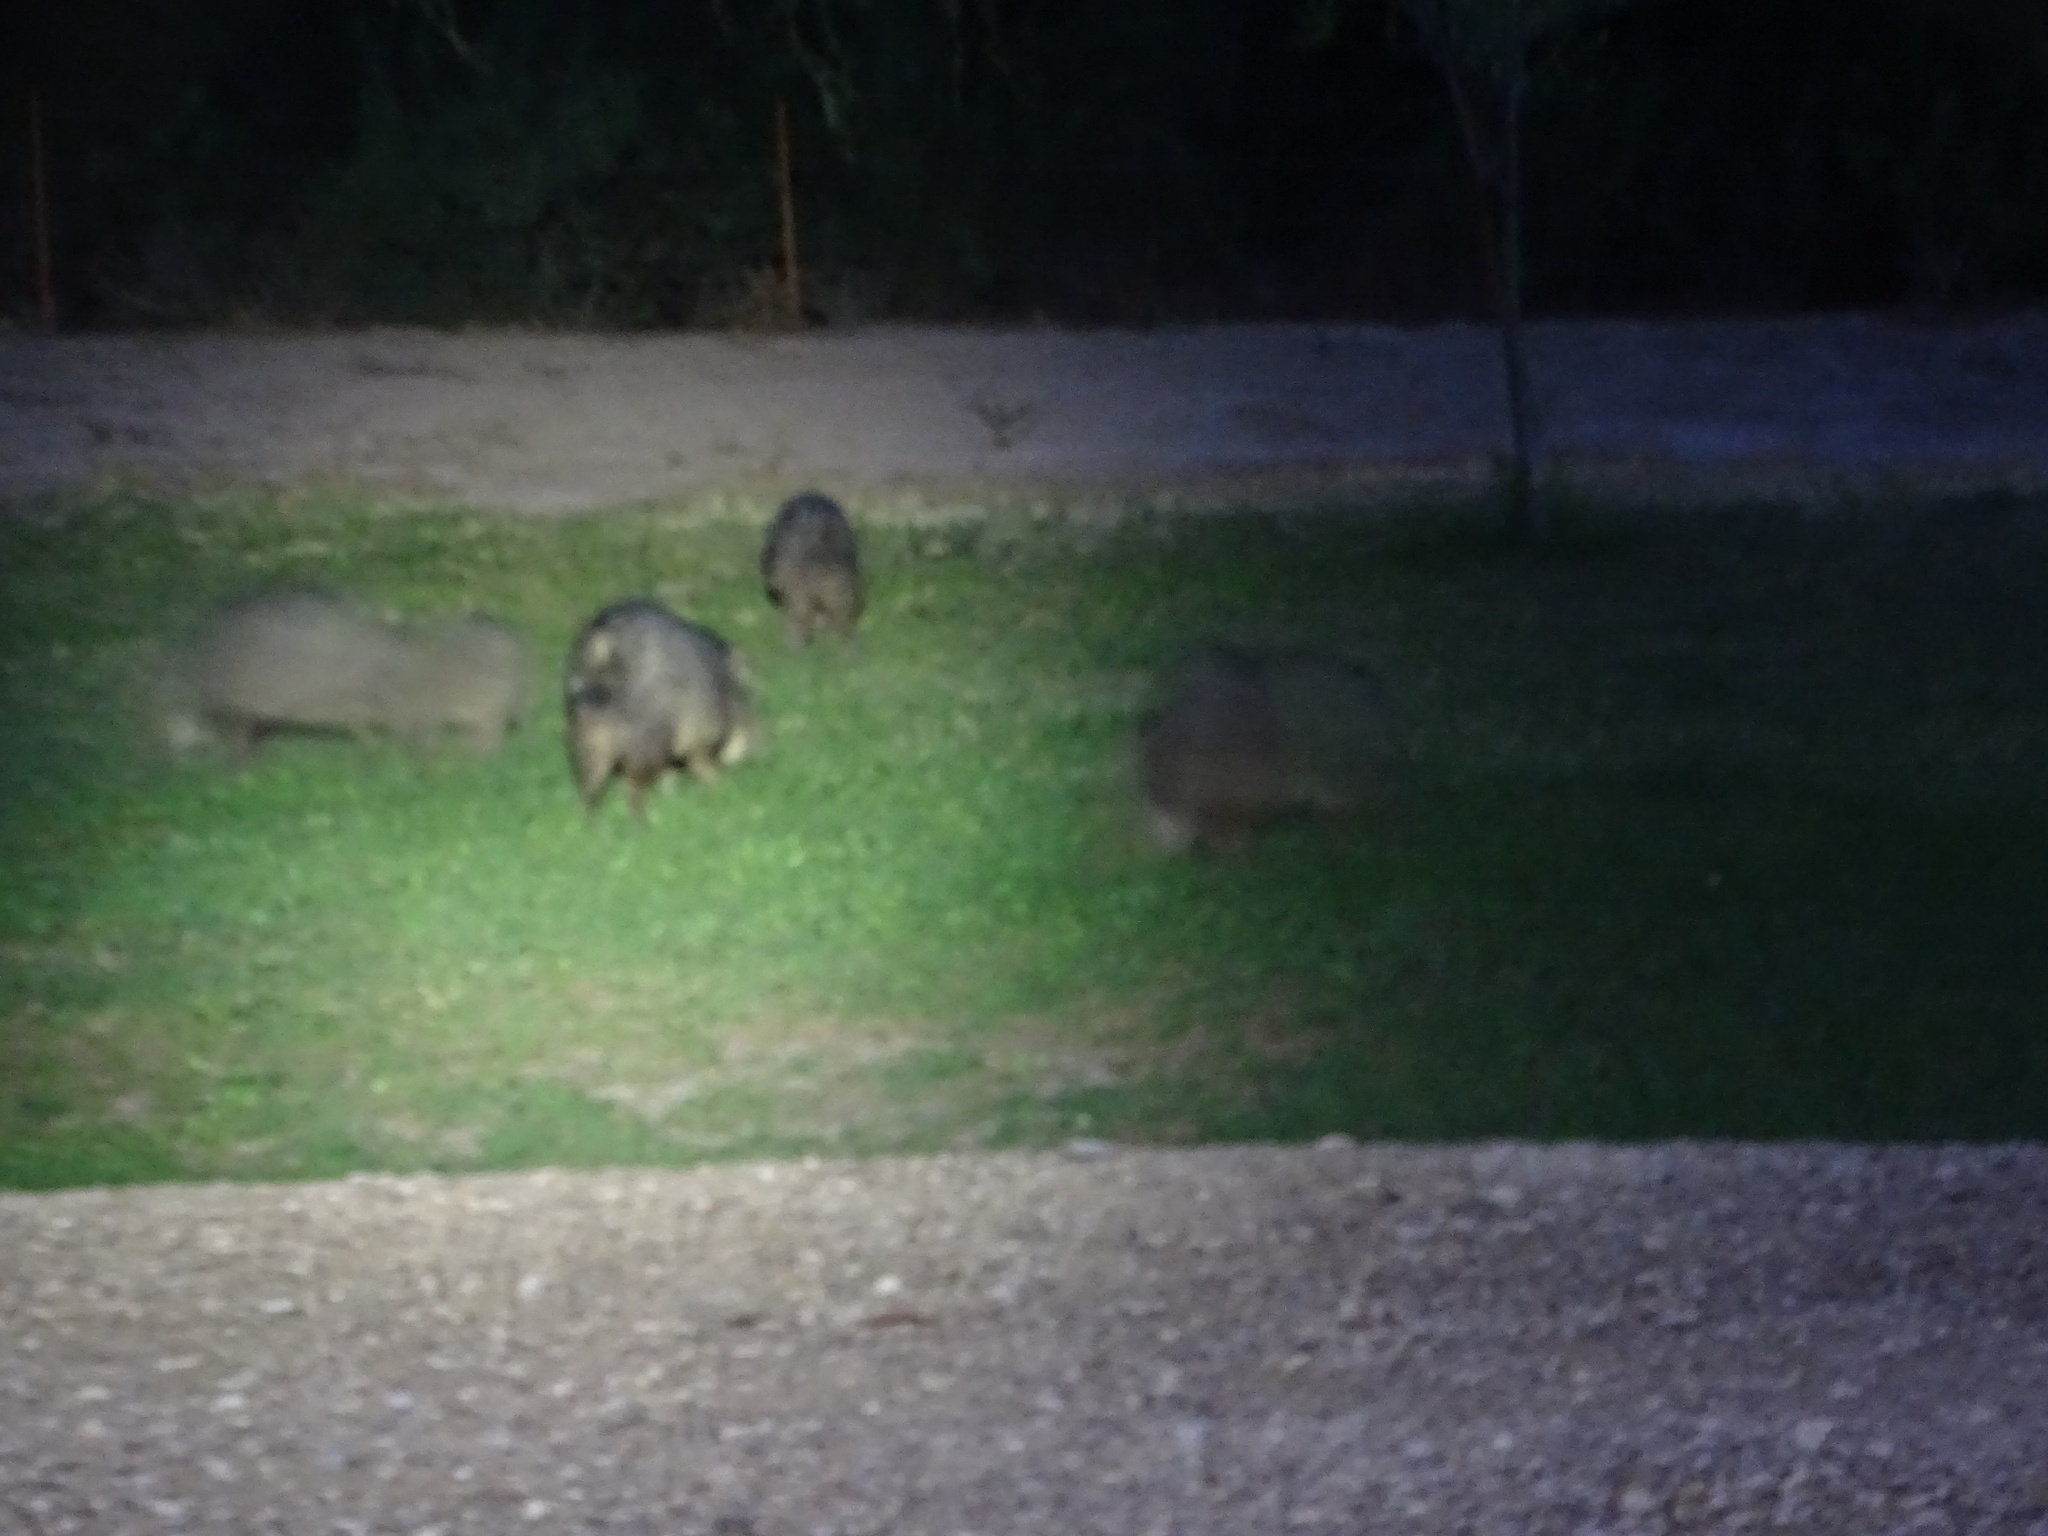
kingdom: Animalia
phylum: Chordata
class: Mammalia
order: Artiodactyla
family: Tayassuidae
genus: Pecari
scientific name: Pecari tajacu
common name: Collared peccary
